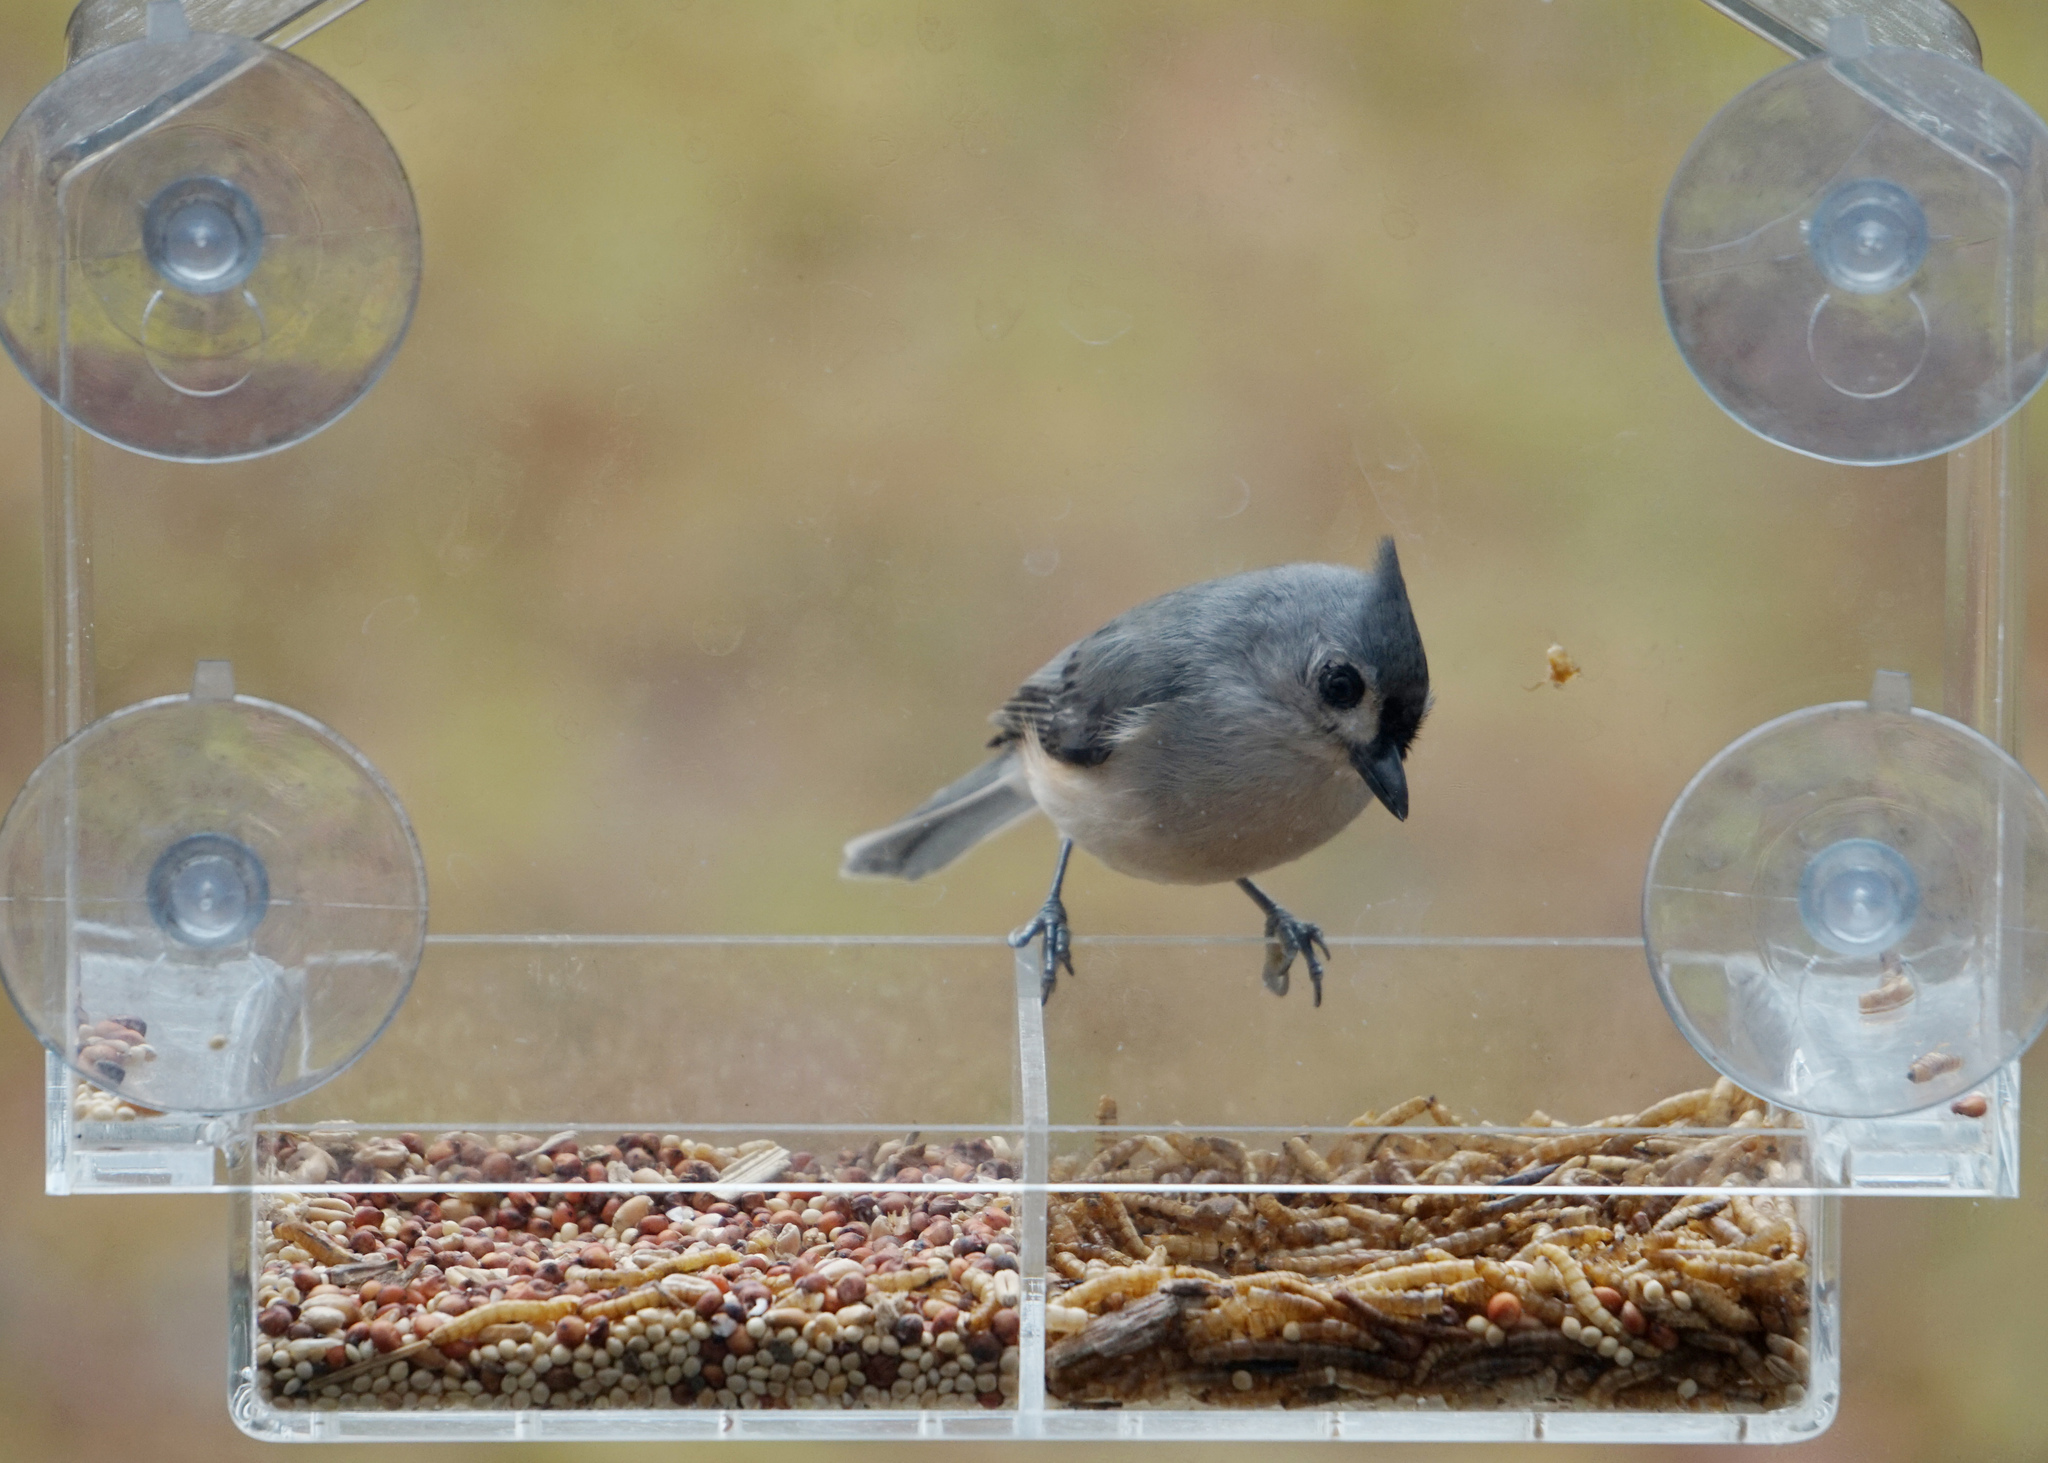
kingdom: Animalia
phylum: Chordata
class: Aves
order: Passeriformes
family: Paridae
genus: Baeolophus
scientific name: Baeolophus bicolor
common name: Tufted titmouse
